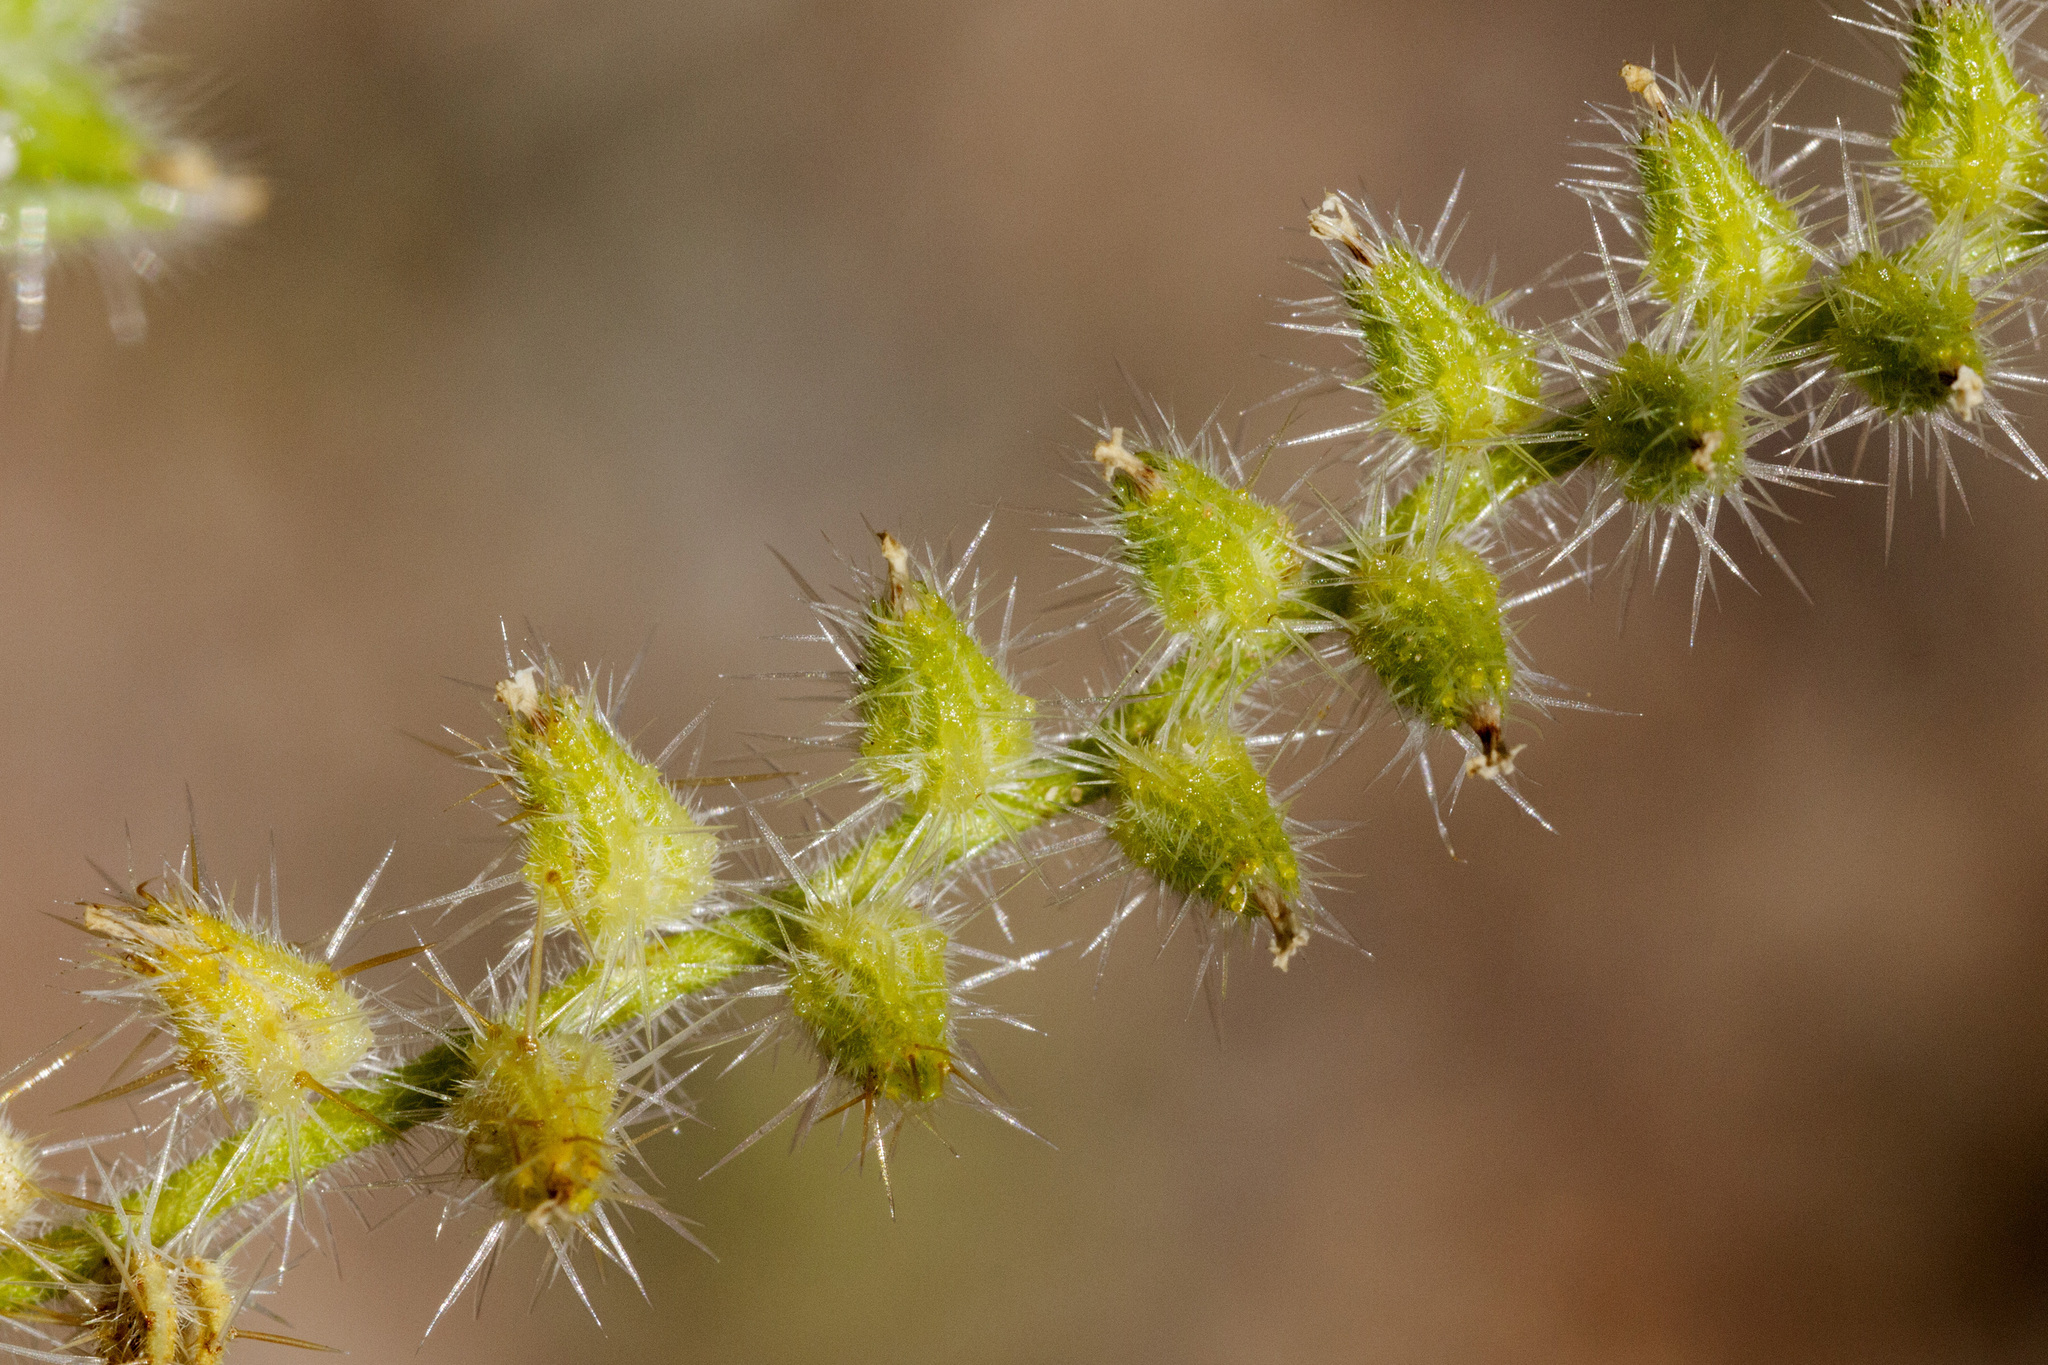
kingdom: Plantae
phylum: Tracheophyta
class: Magnoliopsida
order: Boraginales
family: Boraginaceae
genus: Cryptantha
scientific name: Cryptantha crassisepala
